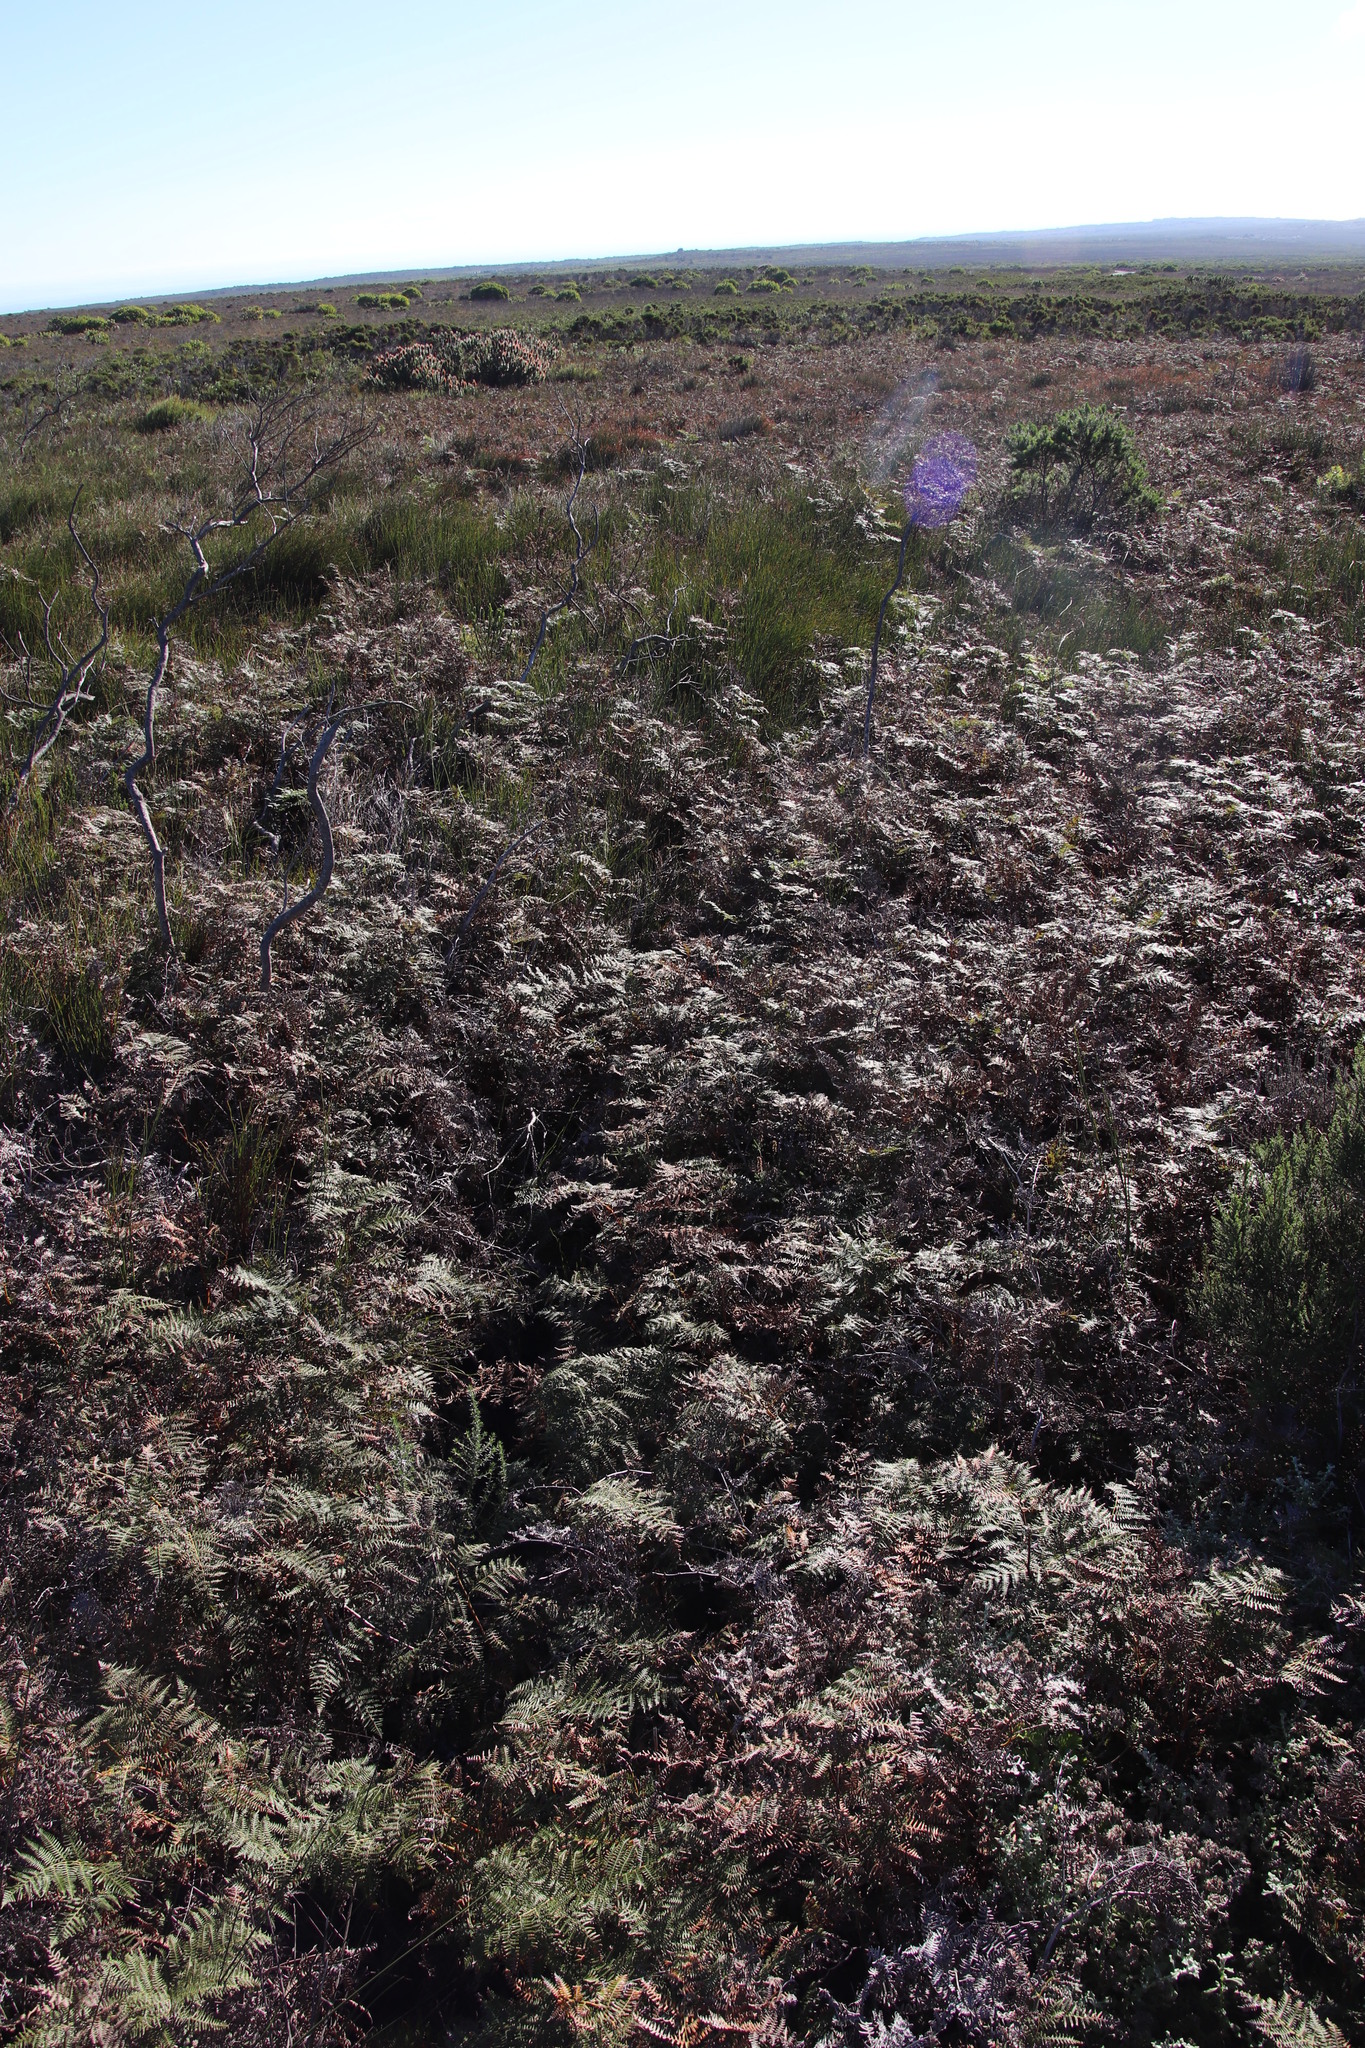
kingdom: Plantae
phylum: Tracheophyta
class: Polypodiopsida
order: Polypodiales
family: Dennstaedtiaceae
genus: Pteridium
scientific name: Pteridium aquilinum
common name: Bracken
